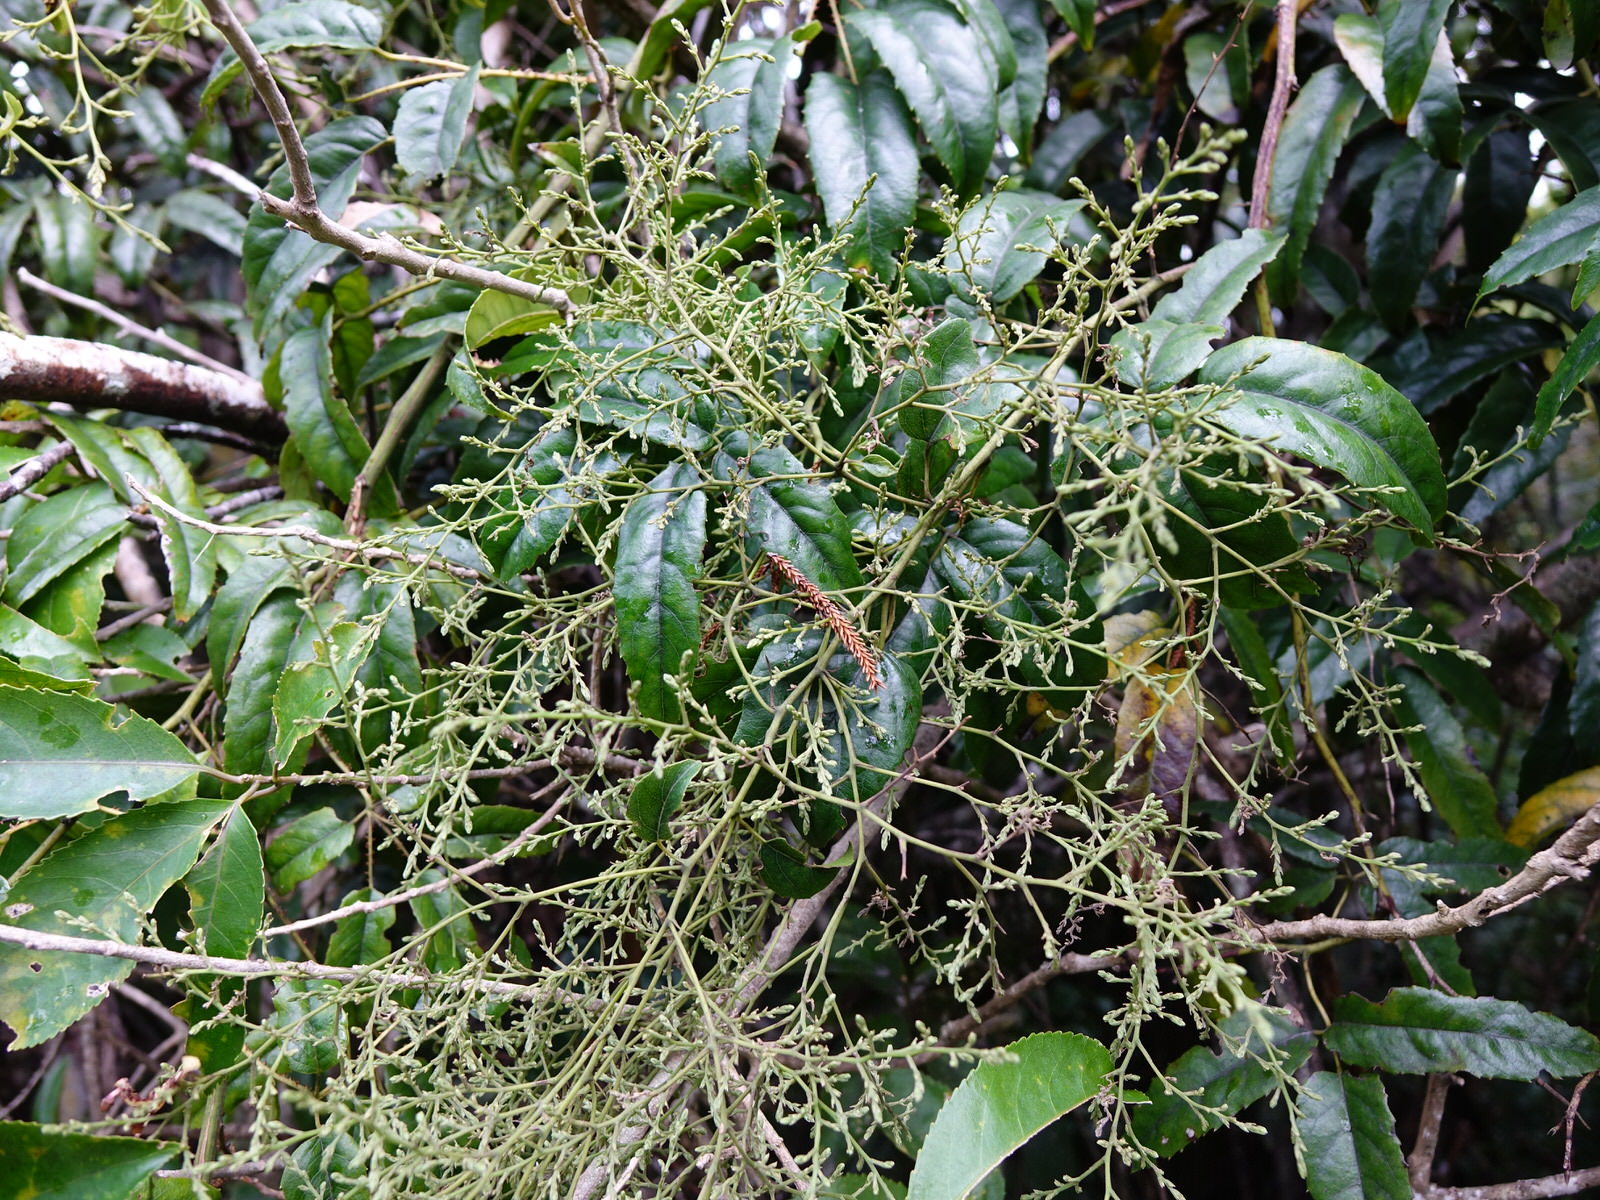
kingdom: Plantae
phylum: Tracheophyta
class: Magnoliopsida
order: Rosales
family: Rosaceae
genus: Rubus
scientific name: Rubus cissoides
